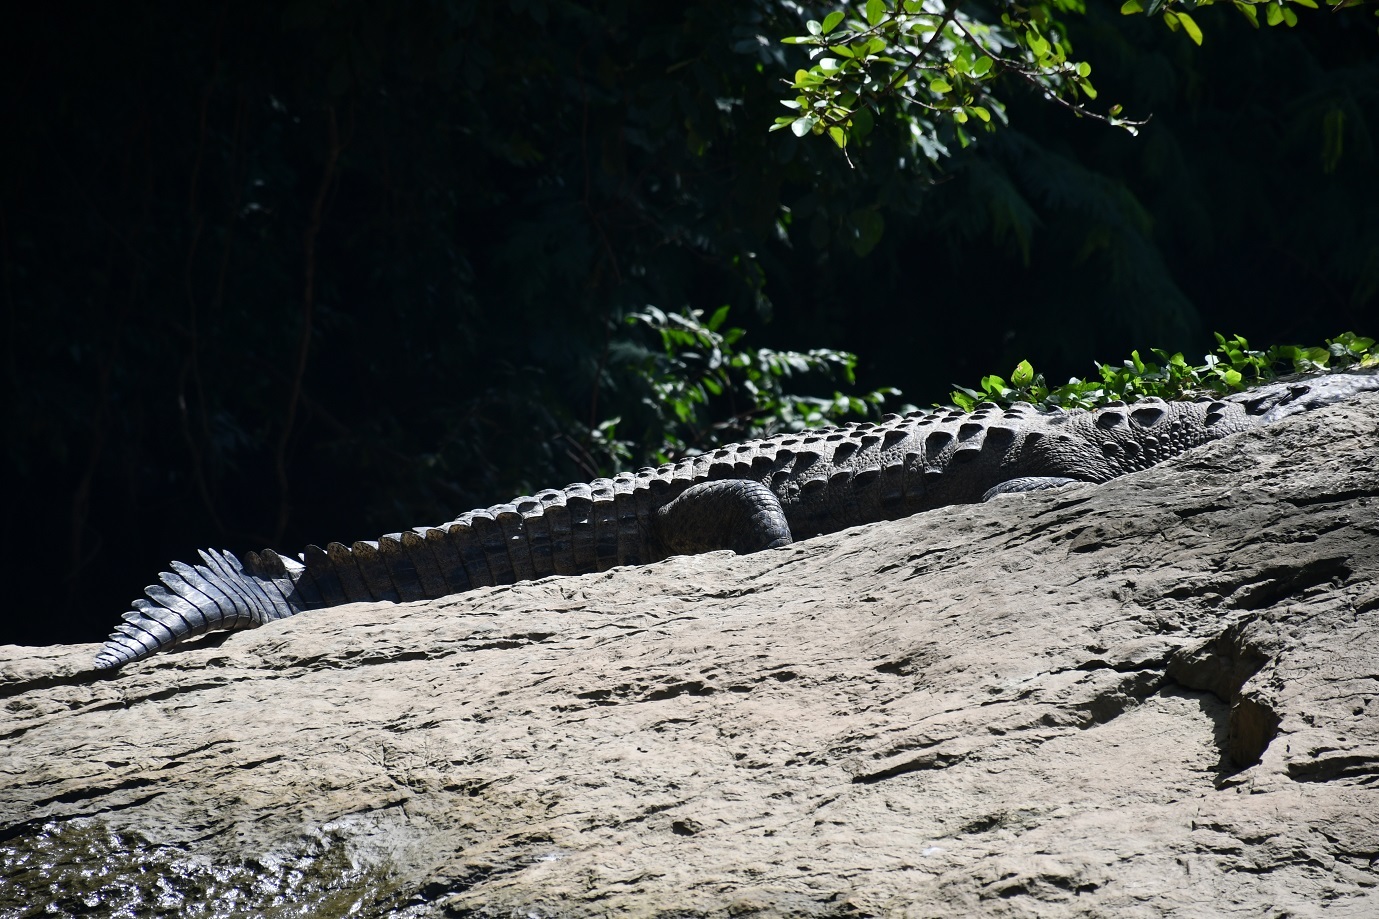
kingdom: Animalia
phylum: Chordata
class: Crocodylia
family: Crocodylidae
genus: Crocodylus
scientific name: Crocodylus acutus
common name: American crocodile
